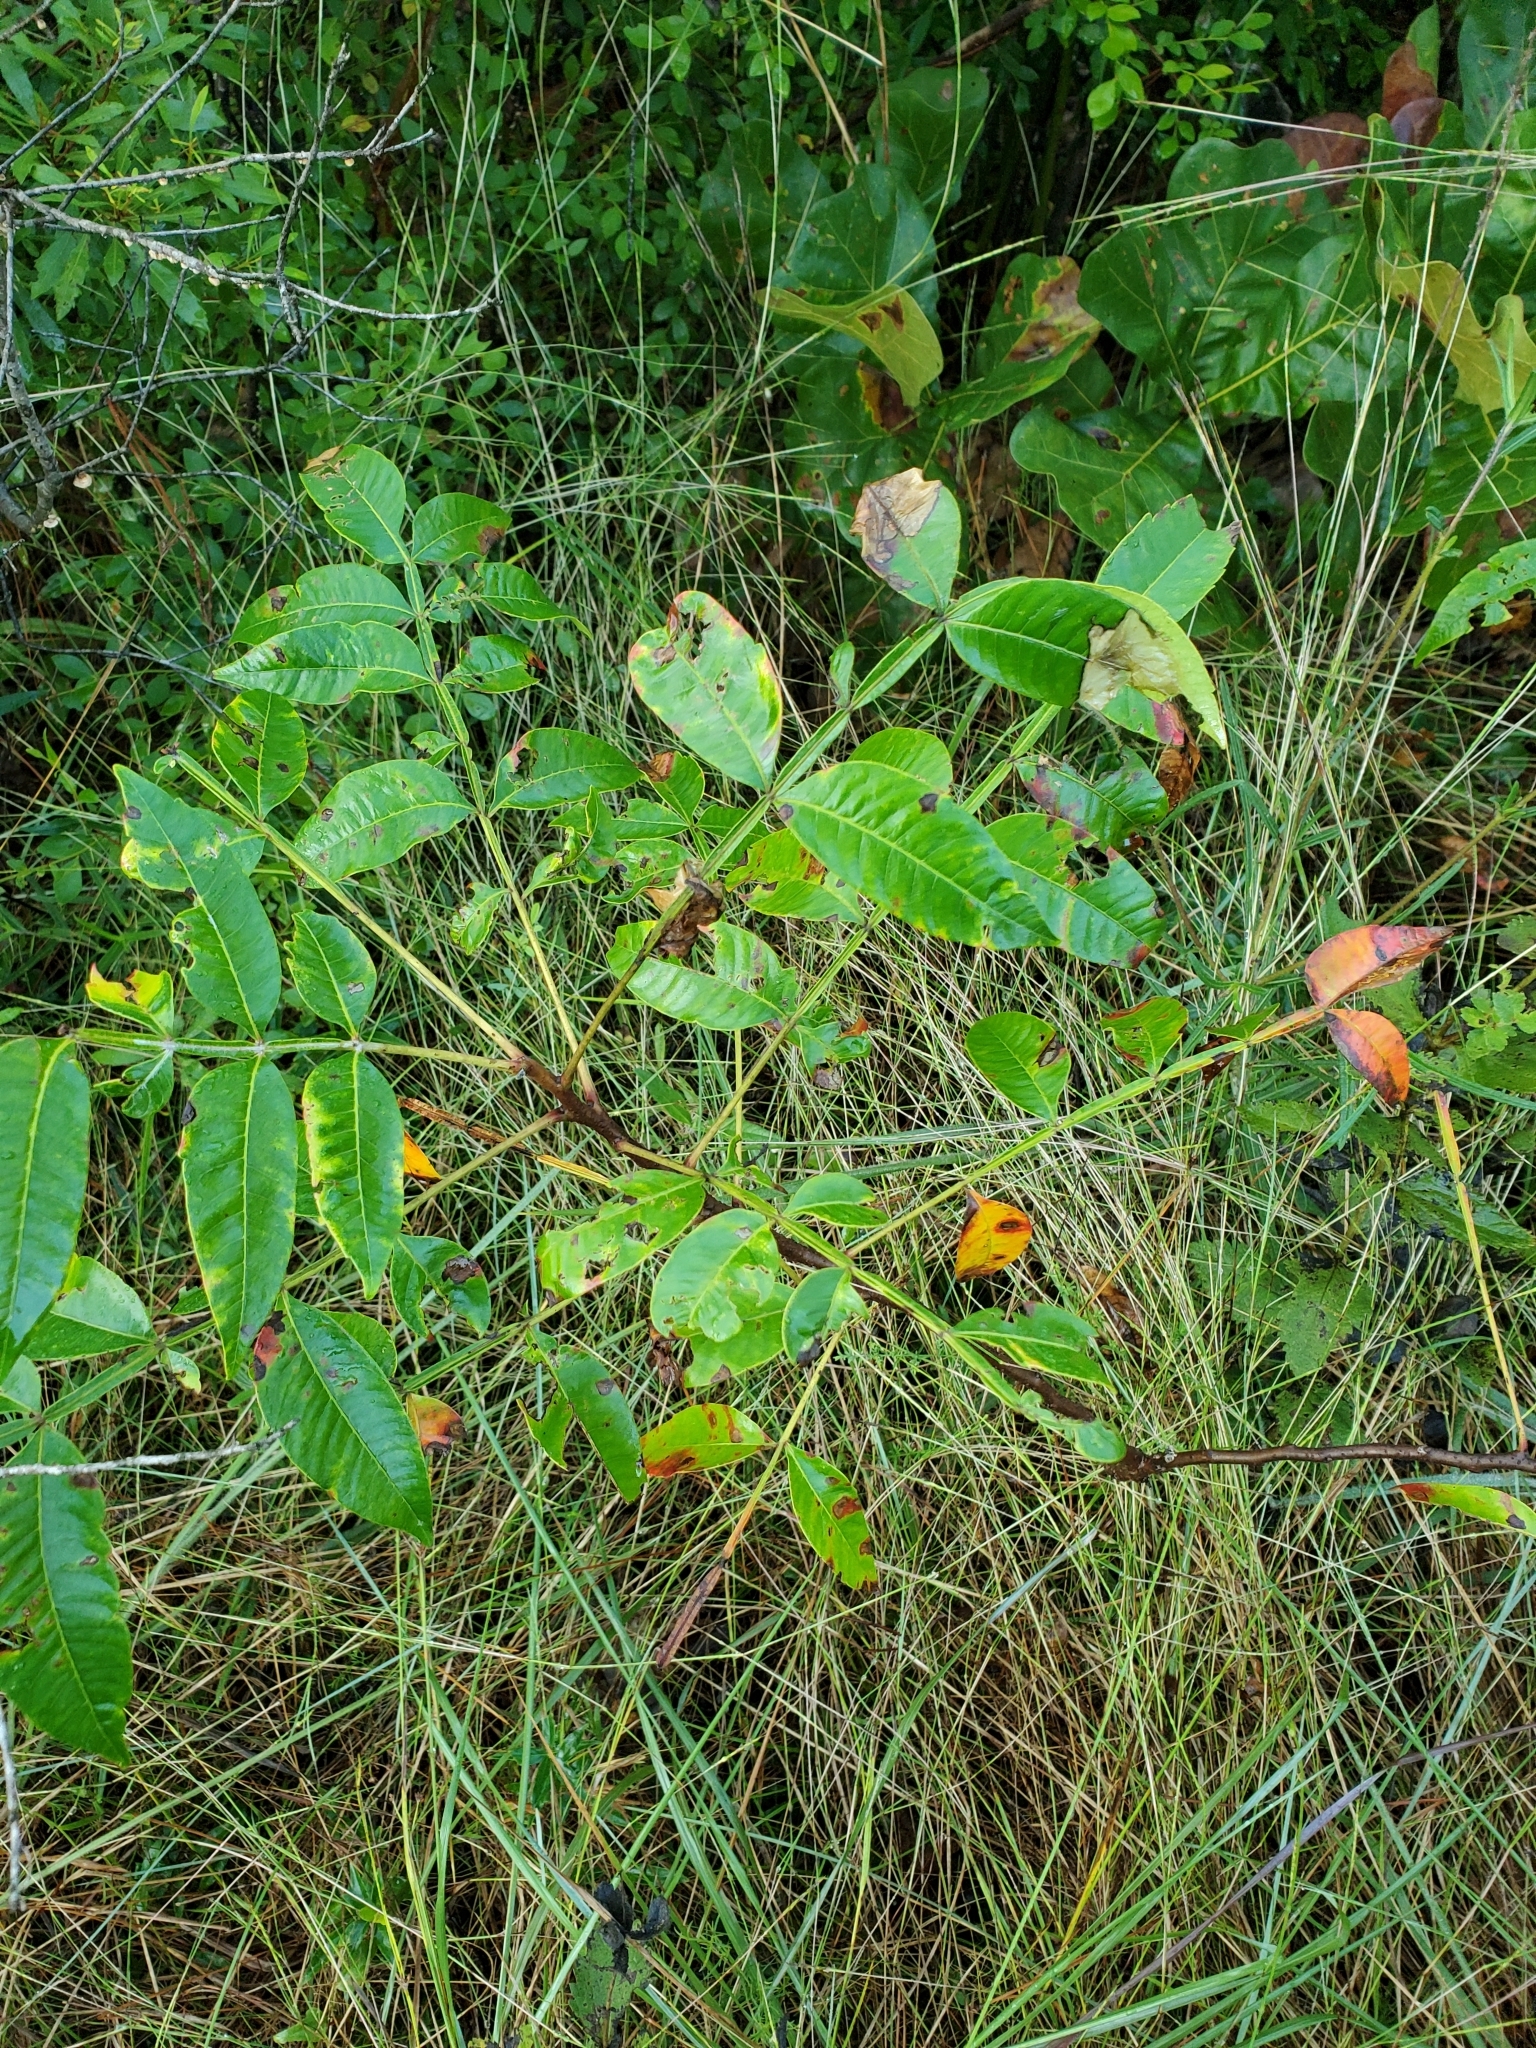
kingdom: Plantae
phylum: Tracheophyta
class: Magnoliopsida
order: Sapindales
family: Anacardiaceae
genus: Rhus
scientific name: Rhus copallina
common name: Shining sumac
